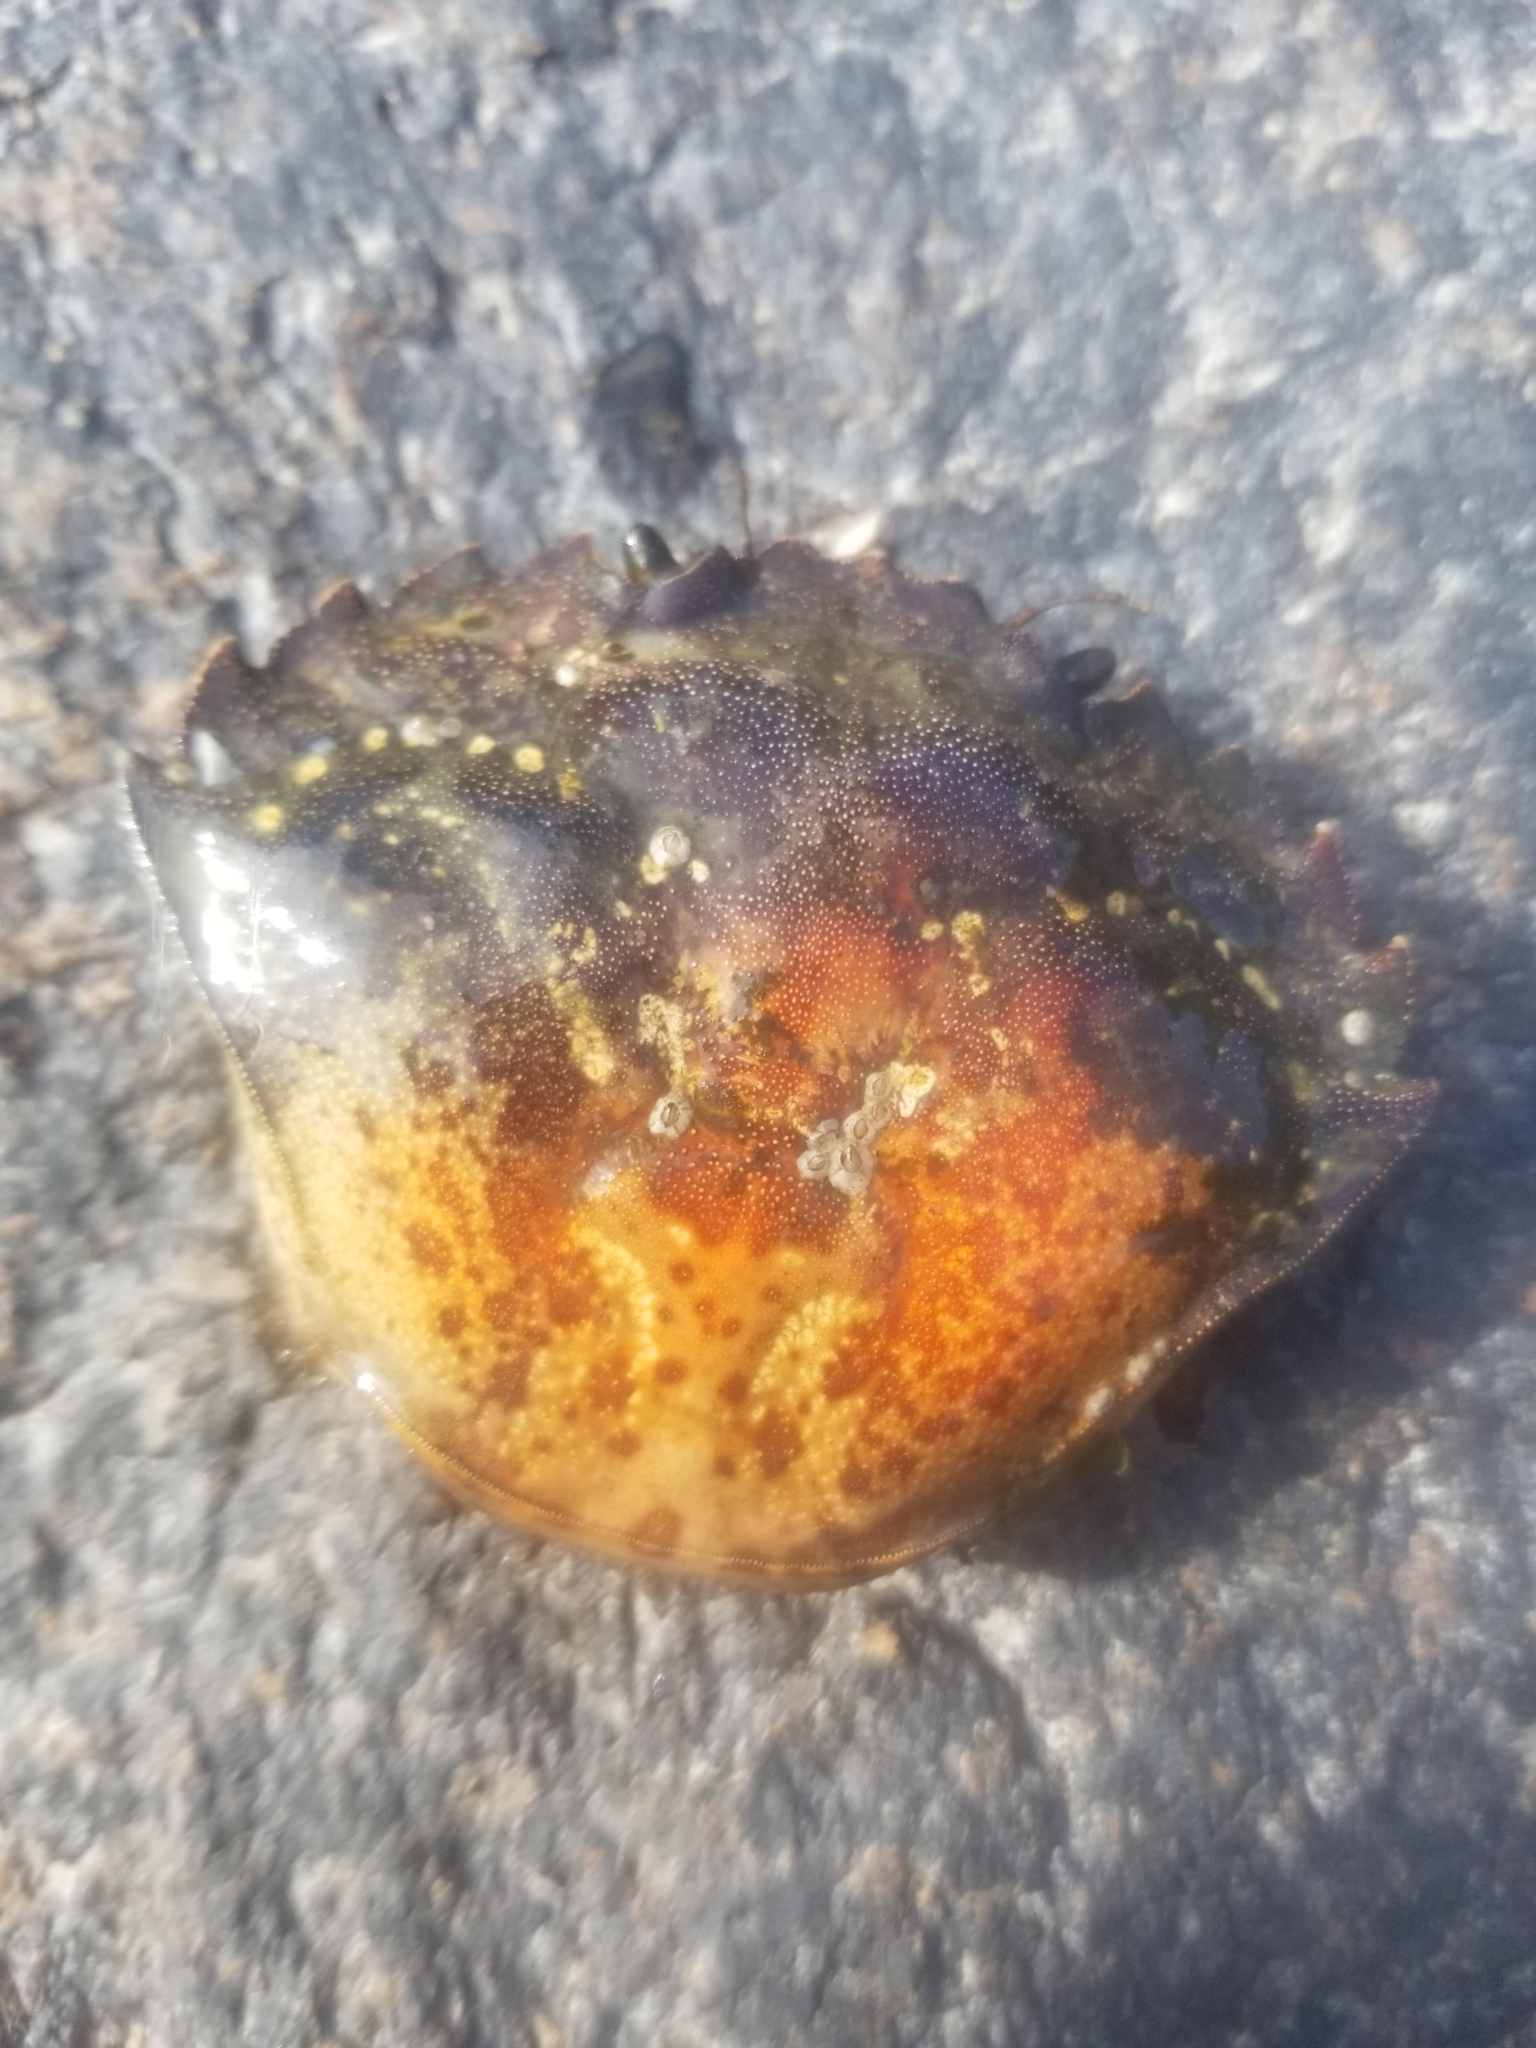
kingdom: Animalia
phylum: Arthropoda
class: Malacostraca
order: Decapoda
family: Carcinidae
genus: Carcinus
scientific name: Carcinus maenas
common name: European green crab
